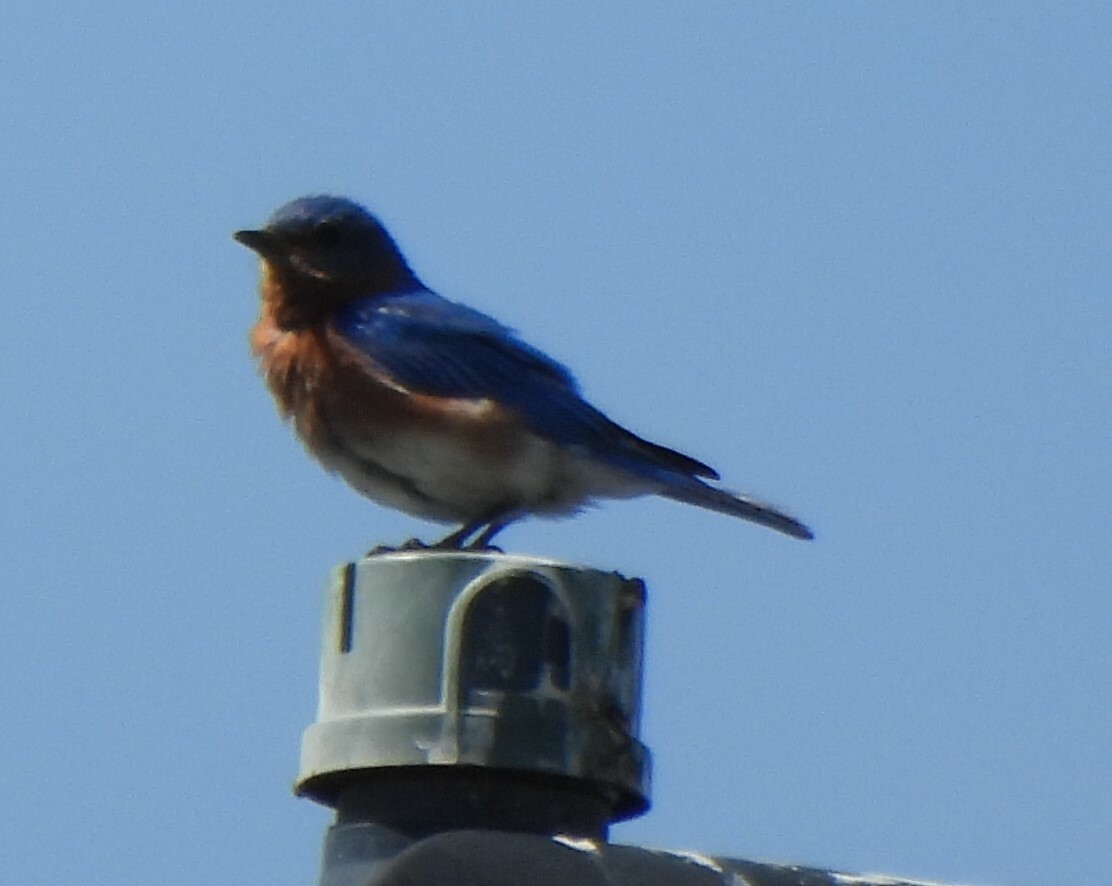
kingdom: Animalia
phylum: Chordata
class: Aves
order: Passeriformes
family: Turdidae
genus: Sialia
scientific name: Sialia sialis
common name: Eastern bluebird
